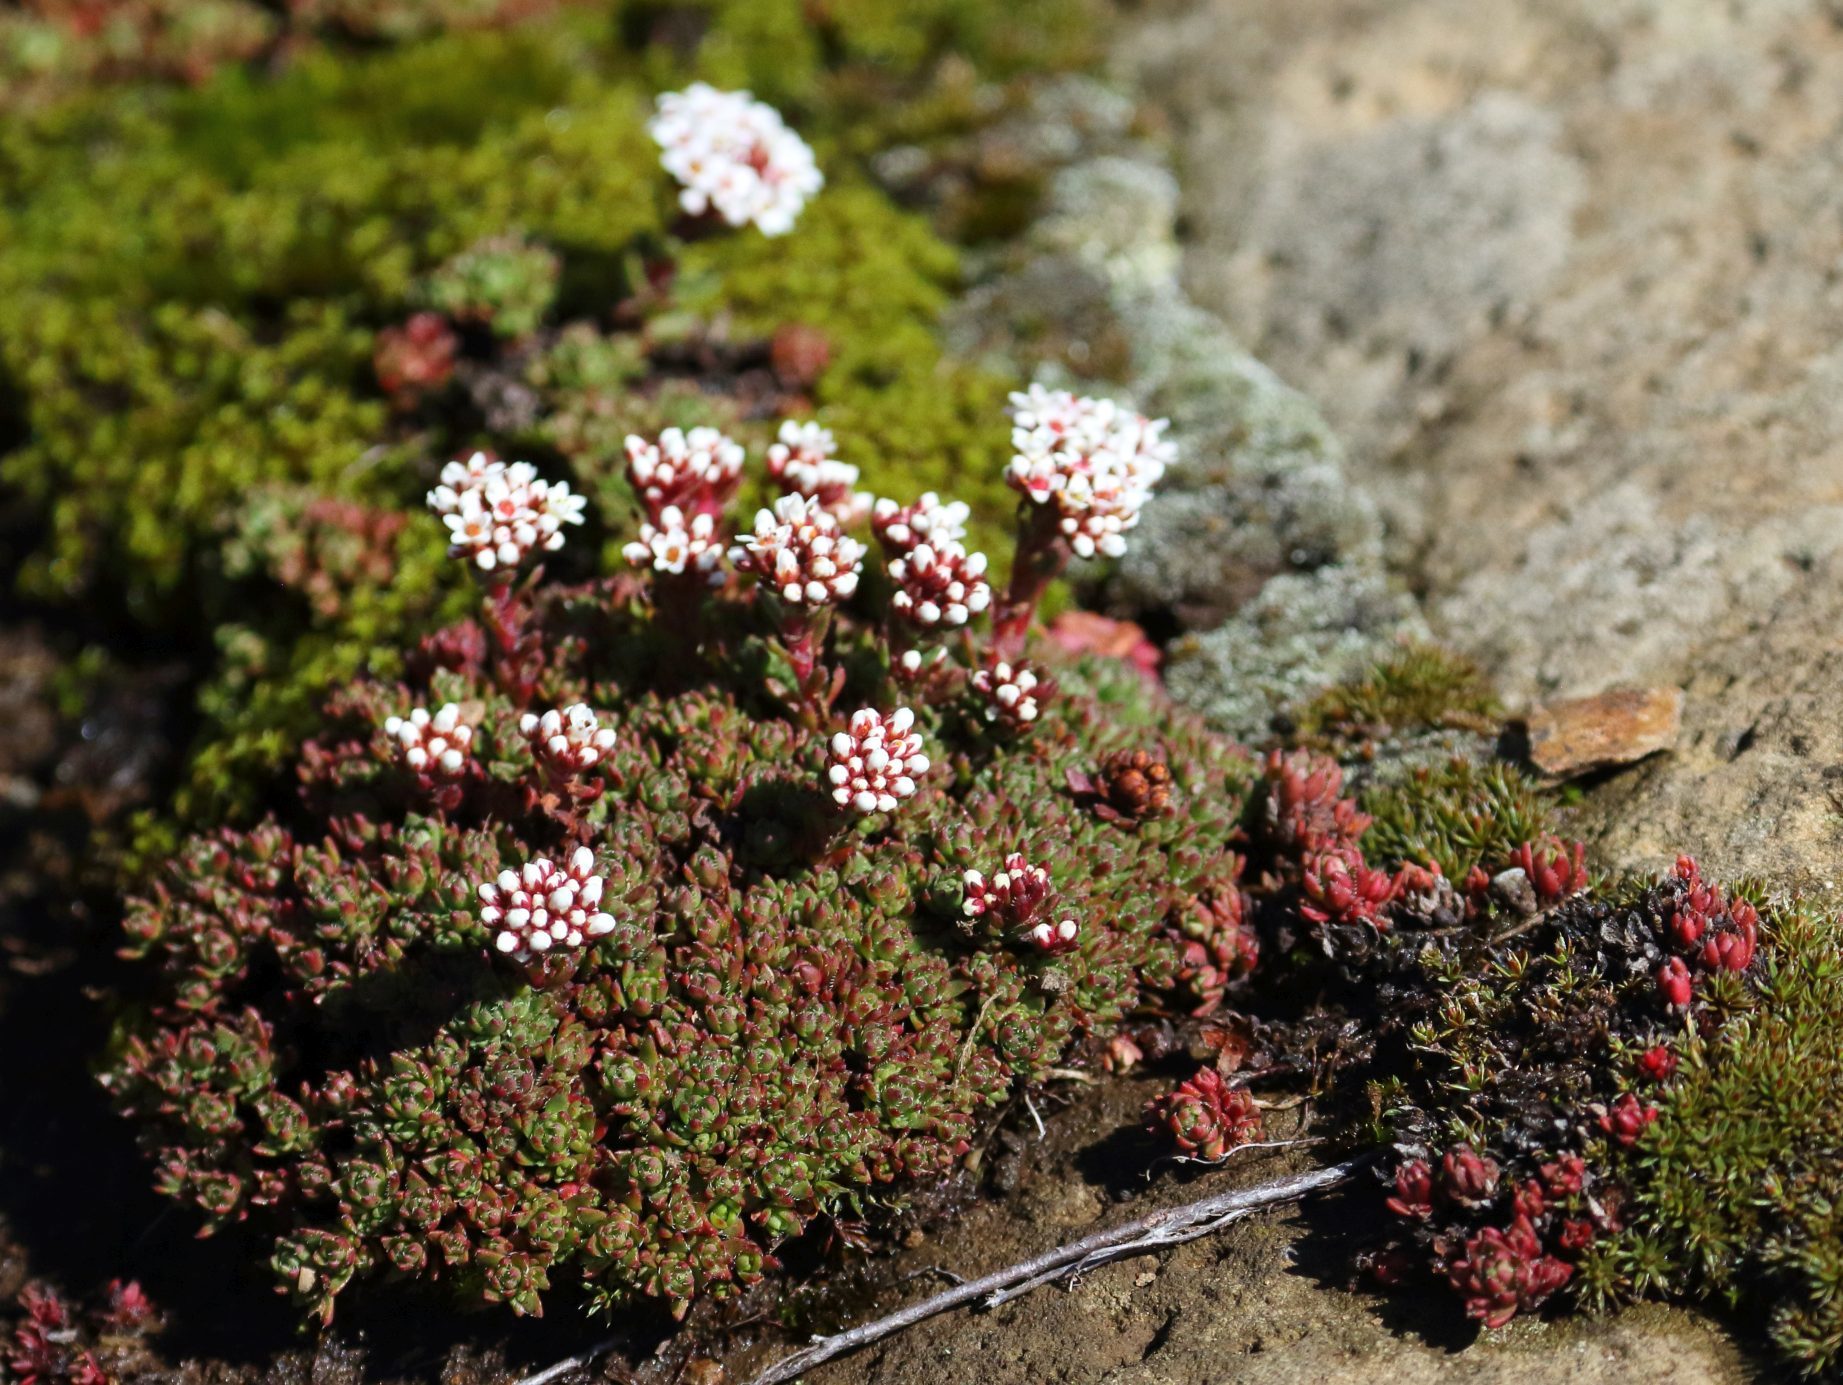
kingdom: Plantae
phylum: Tracheophyta
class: Magnoliopsida
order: Saxifragales
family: Crassulaceae
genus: Crassula
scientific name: Crassula setulosa
